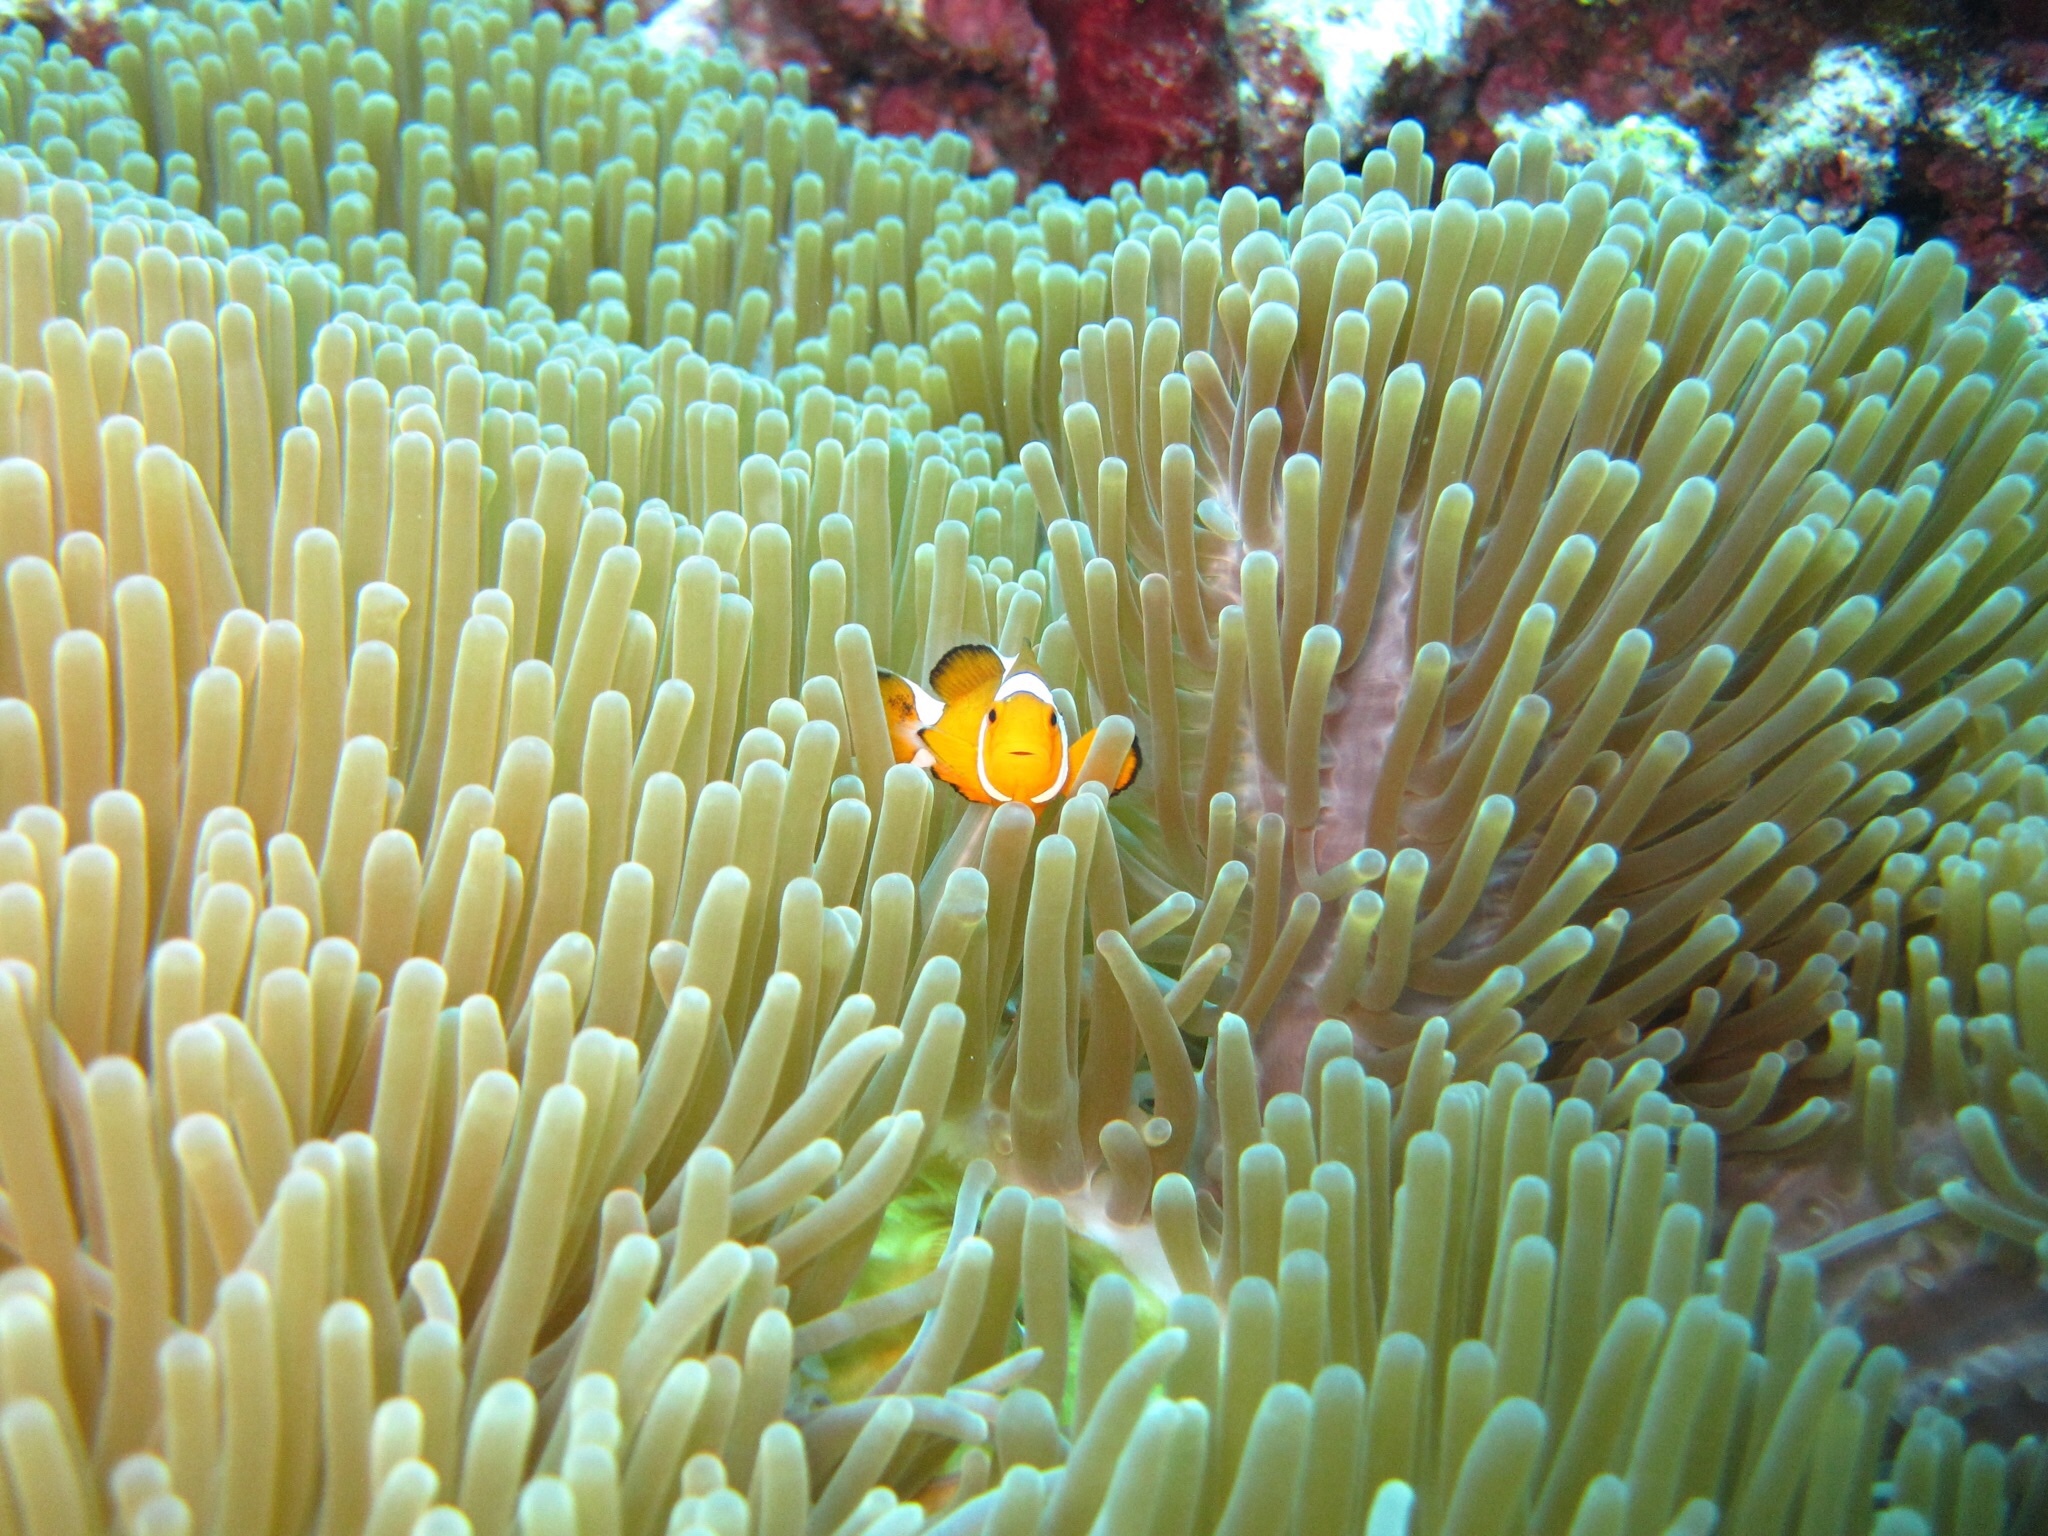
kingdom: Animalia
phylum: Chordata
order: Perciformes
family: Pomacentridae
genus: Amphiprion
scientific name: Amphiprion ocellaris
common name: Clown anemonefish
